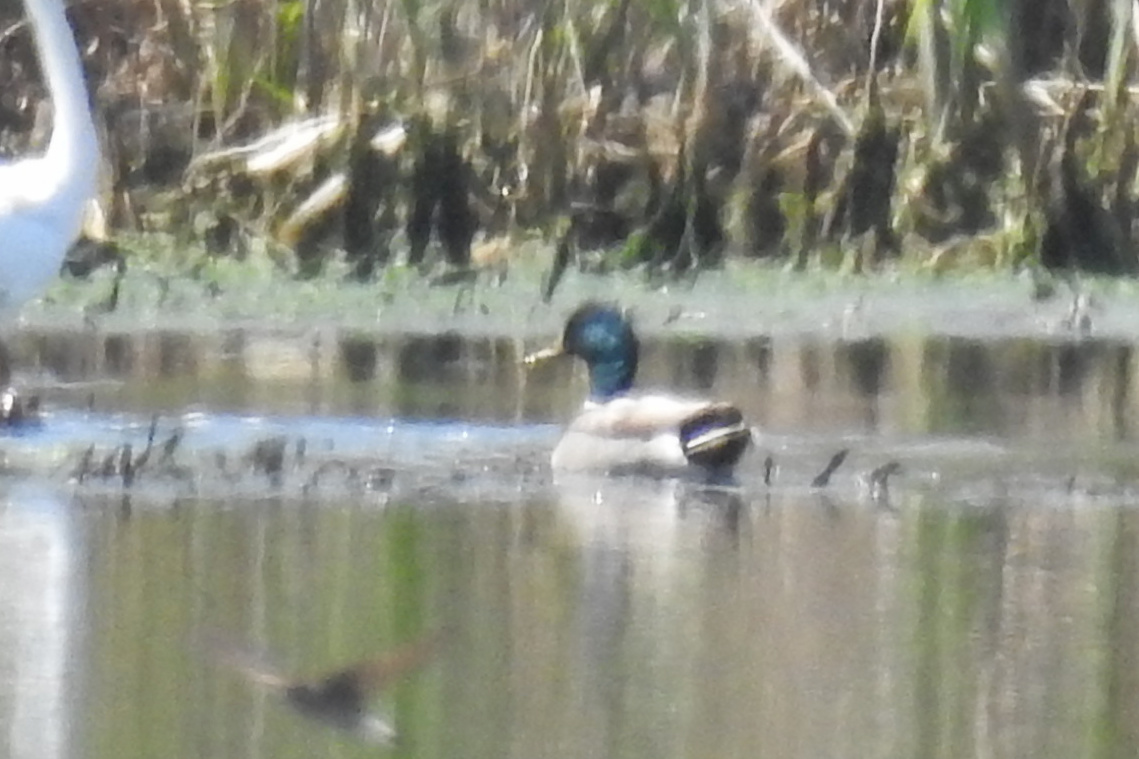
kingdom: Animalia
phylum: Chordata
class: Aves
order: Anseriformes
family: Anatidae
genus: Anas
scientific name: Anas platyrhynchos
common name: Mallard
